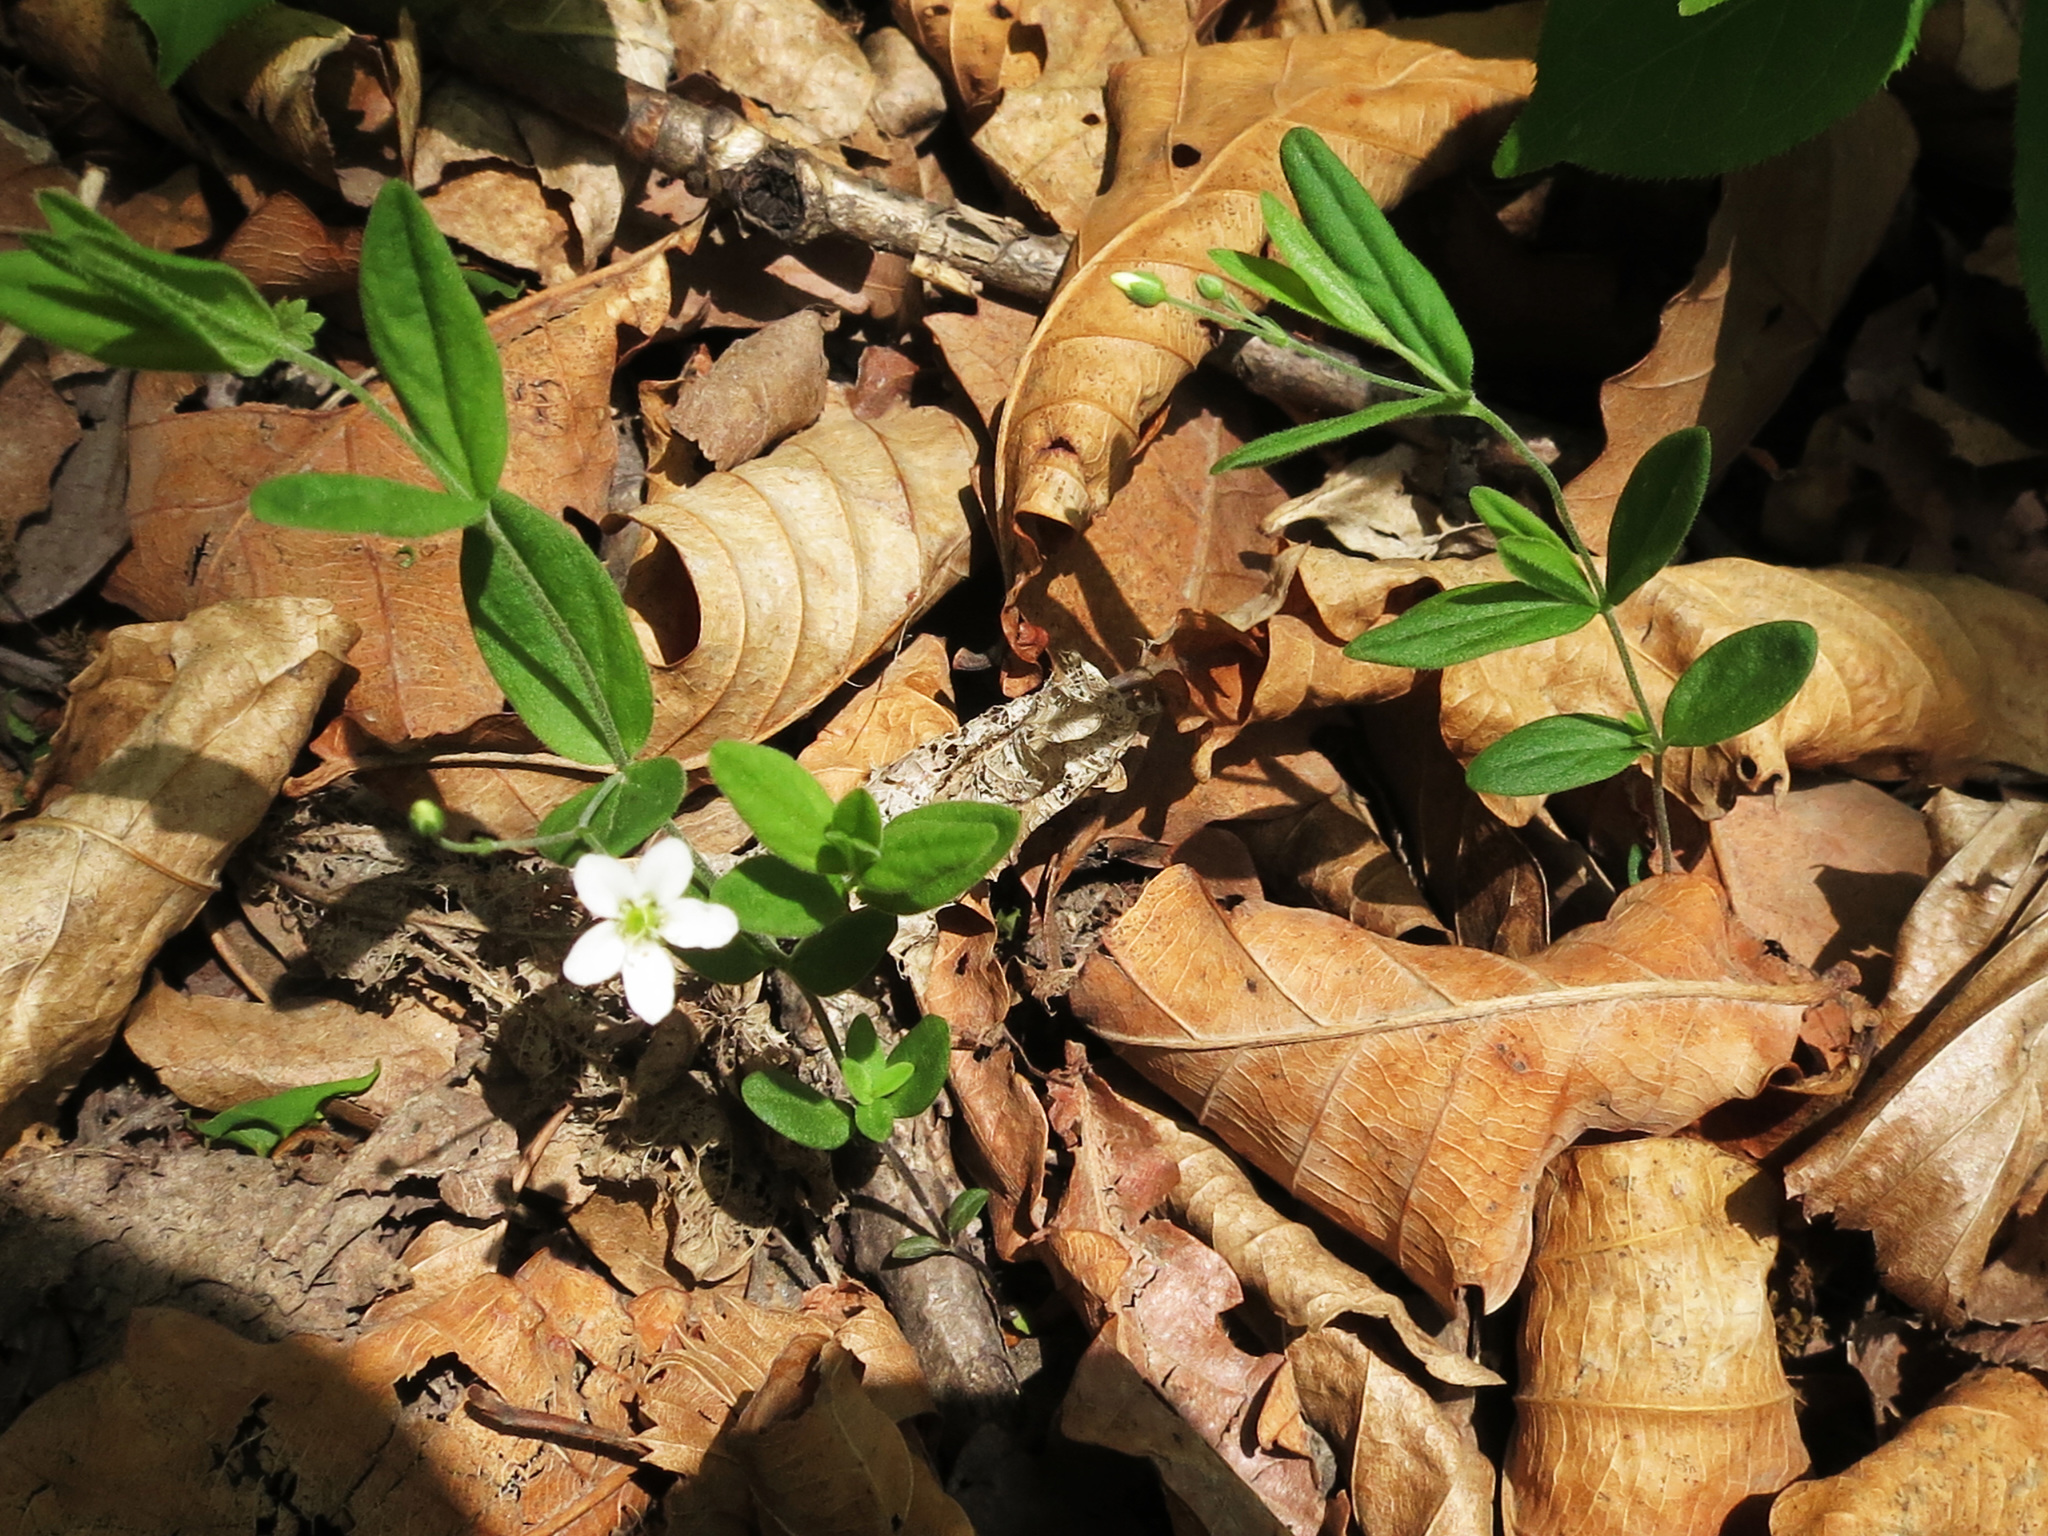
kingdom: Plantae
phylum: Tracheophyta
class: Magnoliopsida
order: Caryophyllales
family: Caryophyllaceae
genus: Moehringia
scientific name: Moehringia lateriflora
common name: Blunt-leaved sandwort
